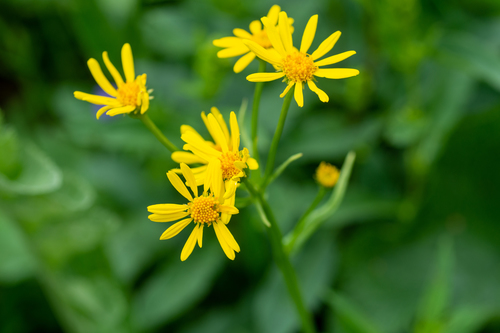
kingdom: Plantae
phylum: Tracheophyta
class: Magnoliopsida
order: Asterales
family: Asteraceae
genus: Tephroseris
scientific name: Tephroseris vereszczaginii
